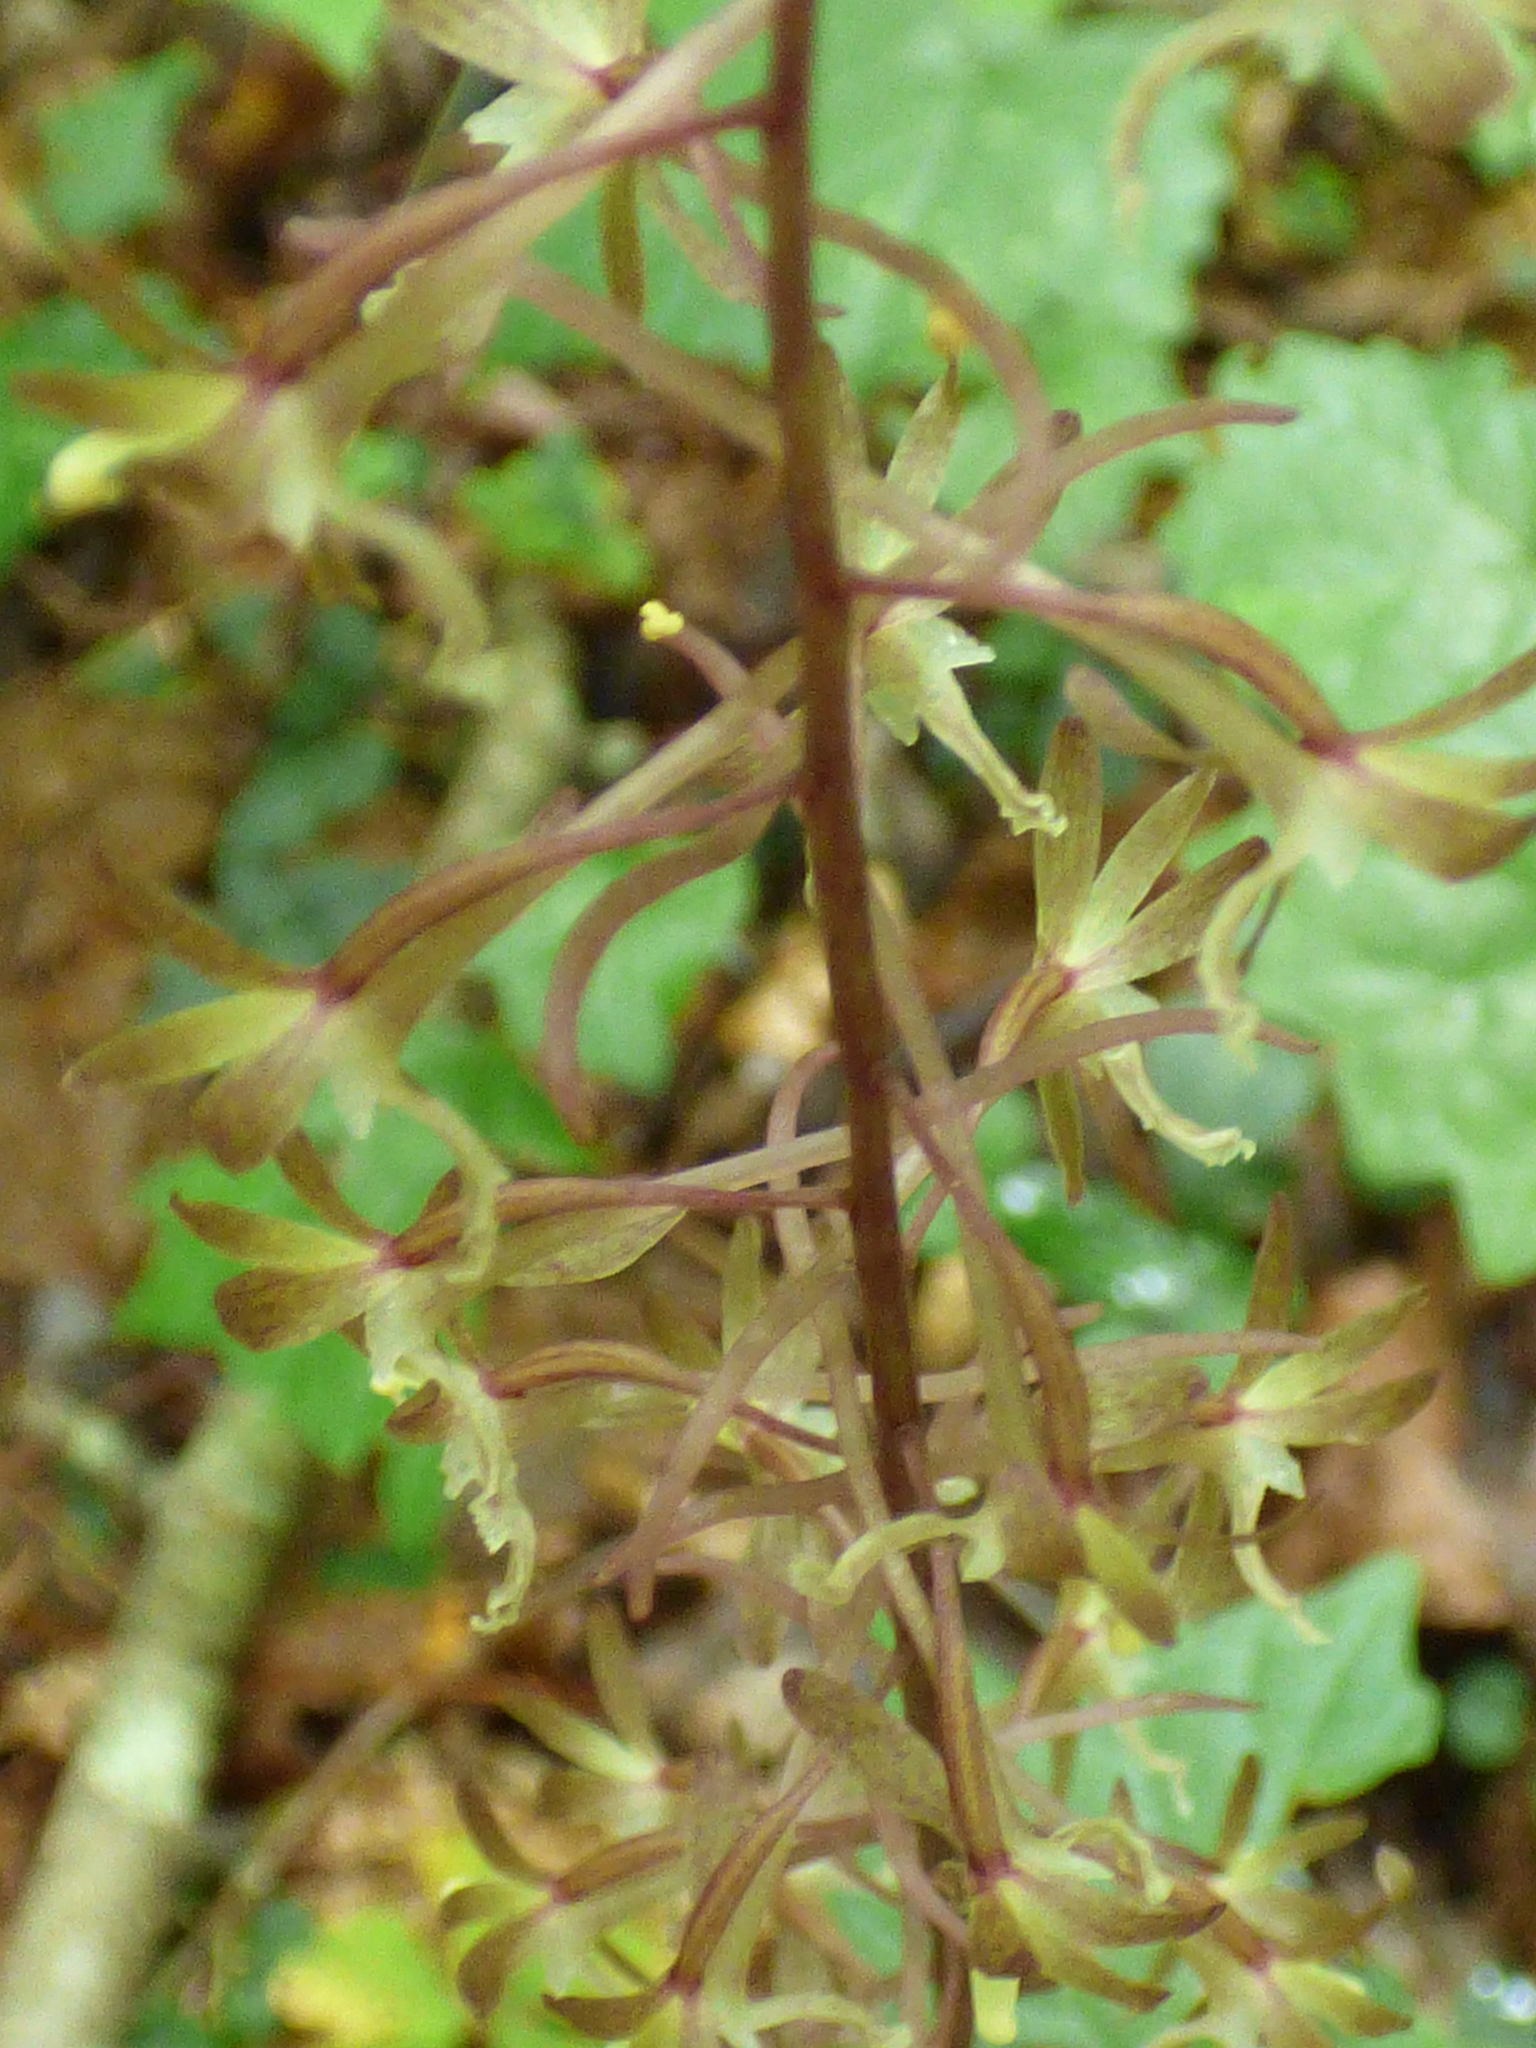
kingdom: Plantae
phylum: Tracheophyta
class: Liliopsida
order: Asparagales
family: Orchidaceae
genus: Tipularia
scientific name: Tipularia discolor
